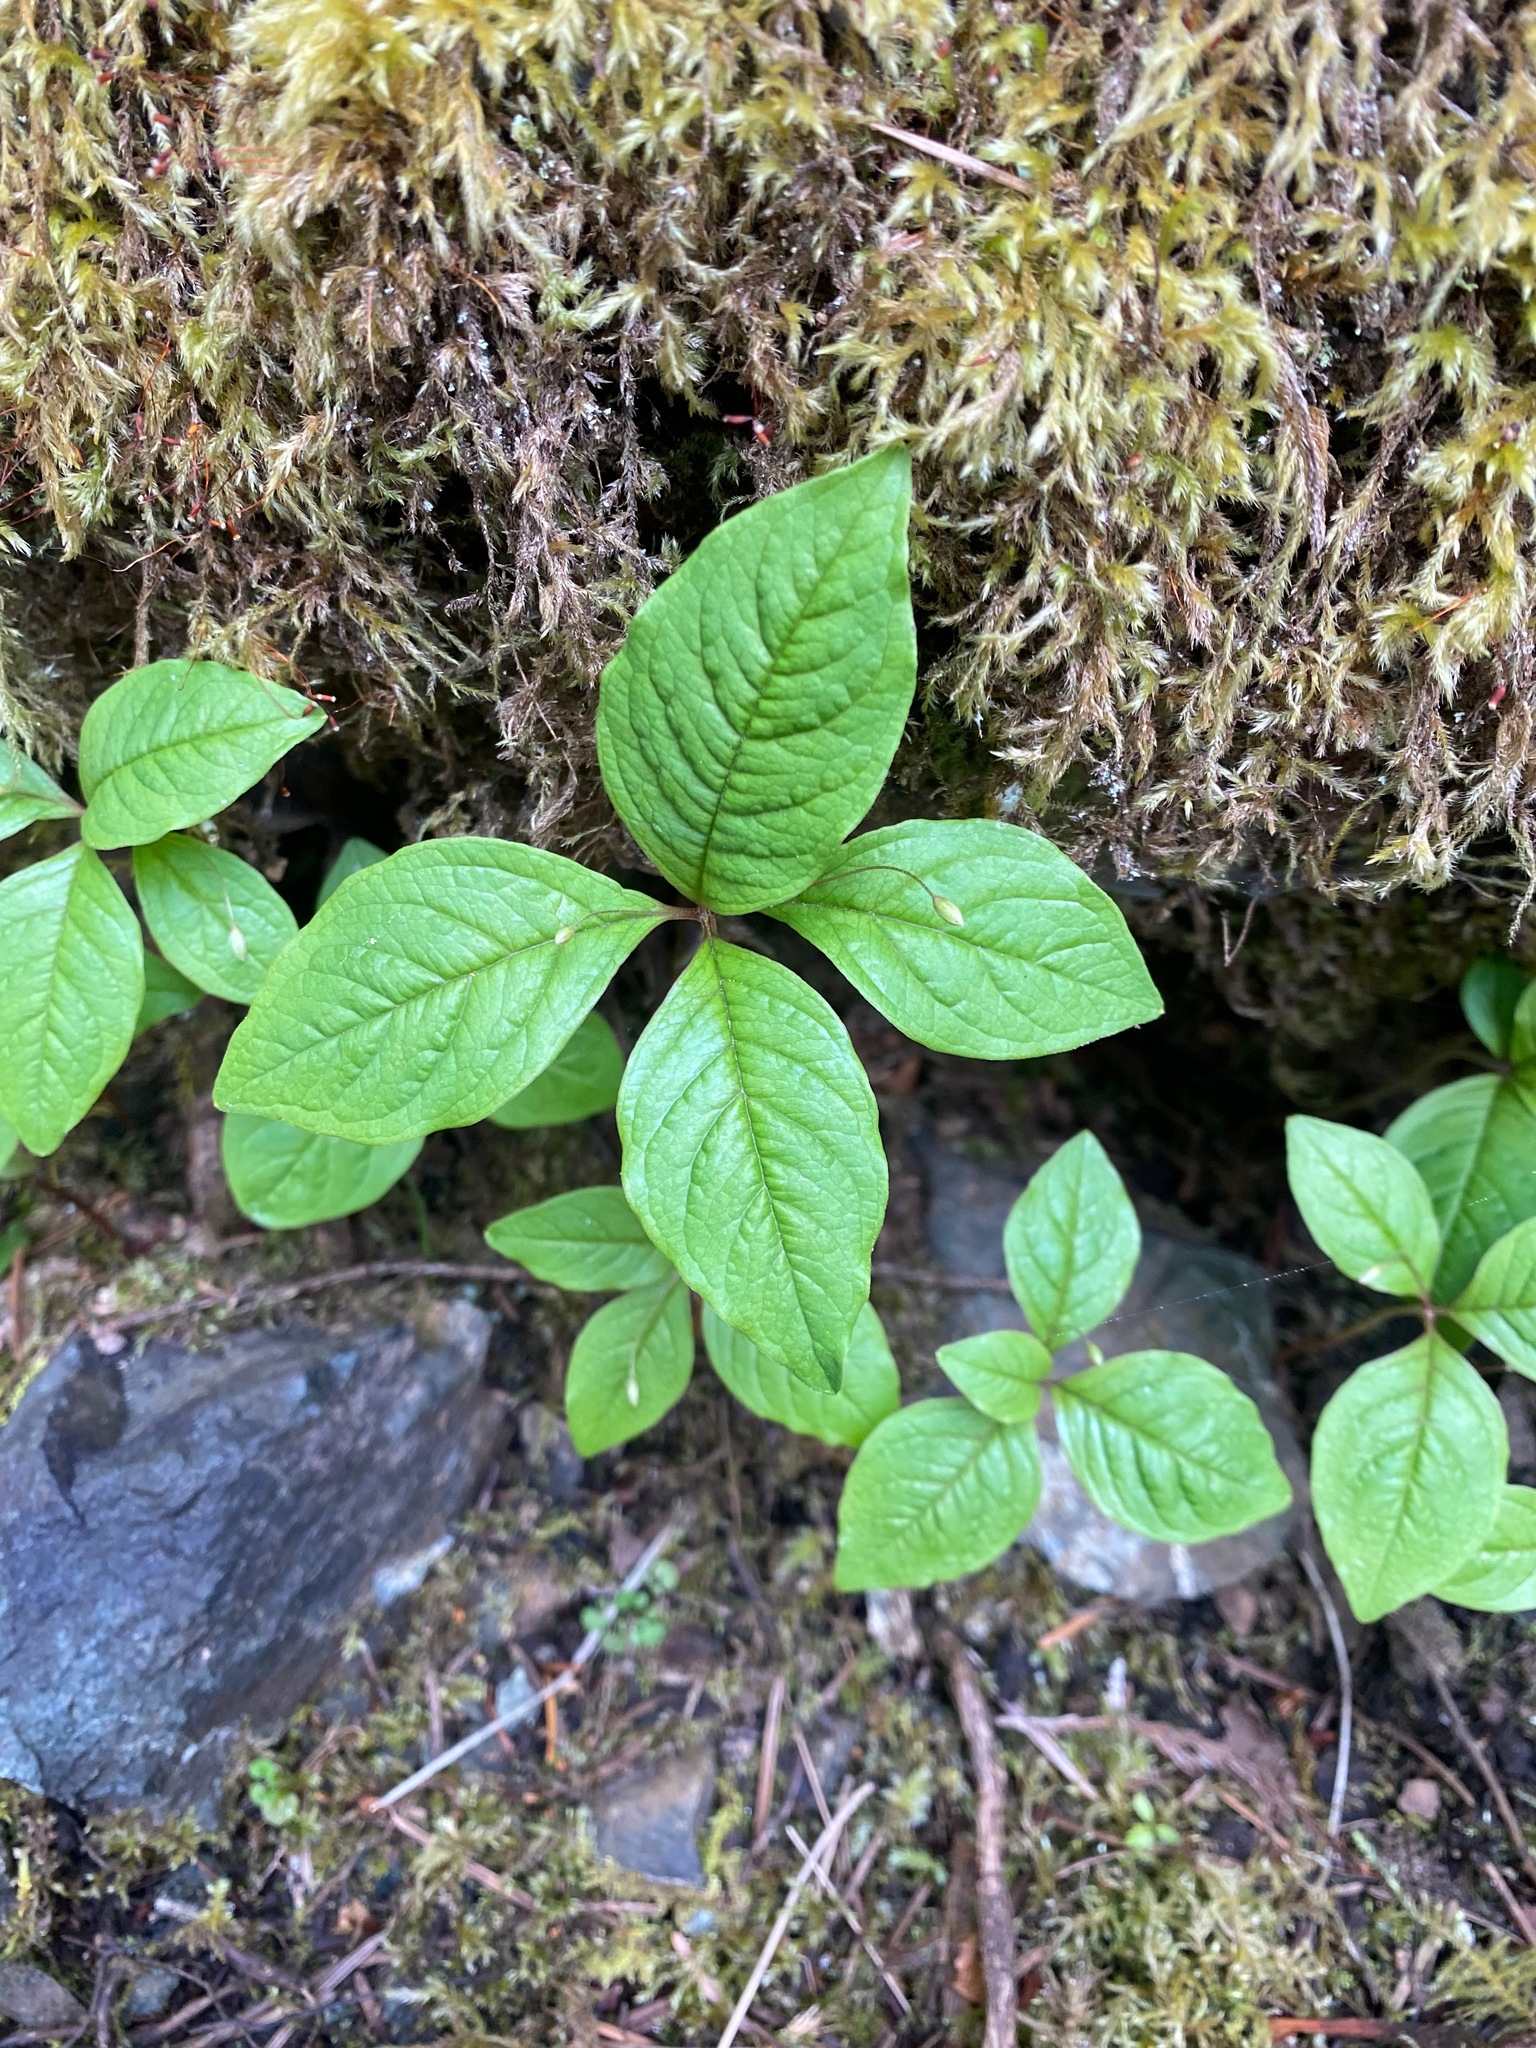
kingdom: Plantae
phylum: Tracheophyta
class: Magnoliopsida
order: Ericales
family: Primulaceae
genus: Lysimachia
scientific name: Lysimachia latifolia
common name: Pacific starflower
